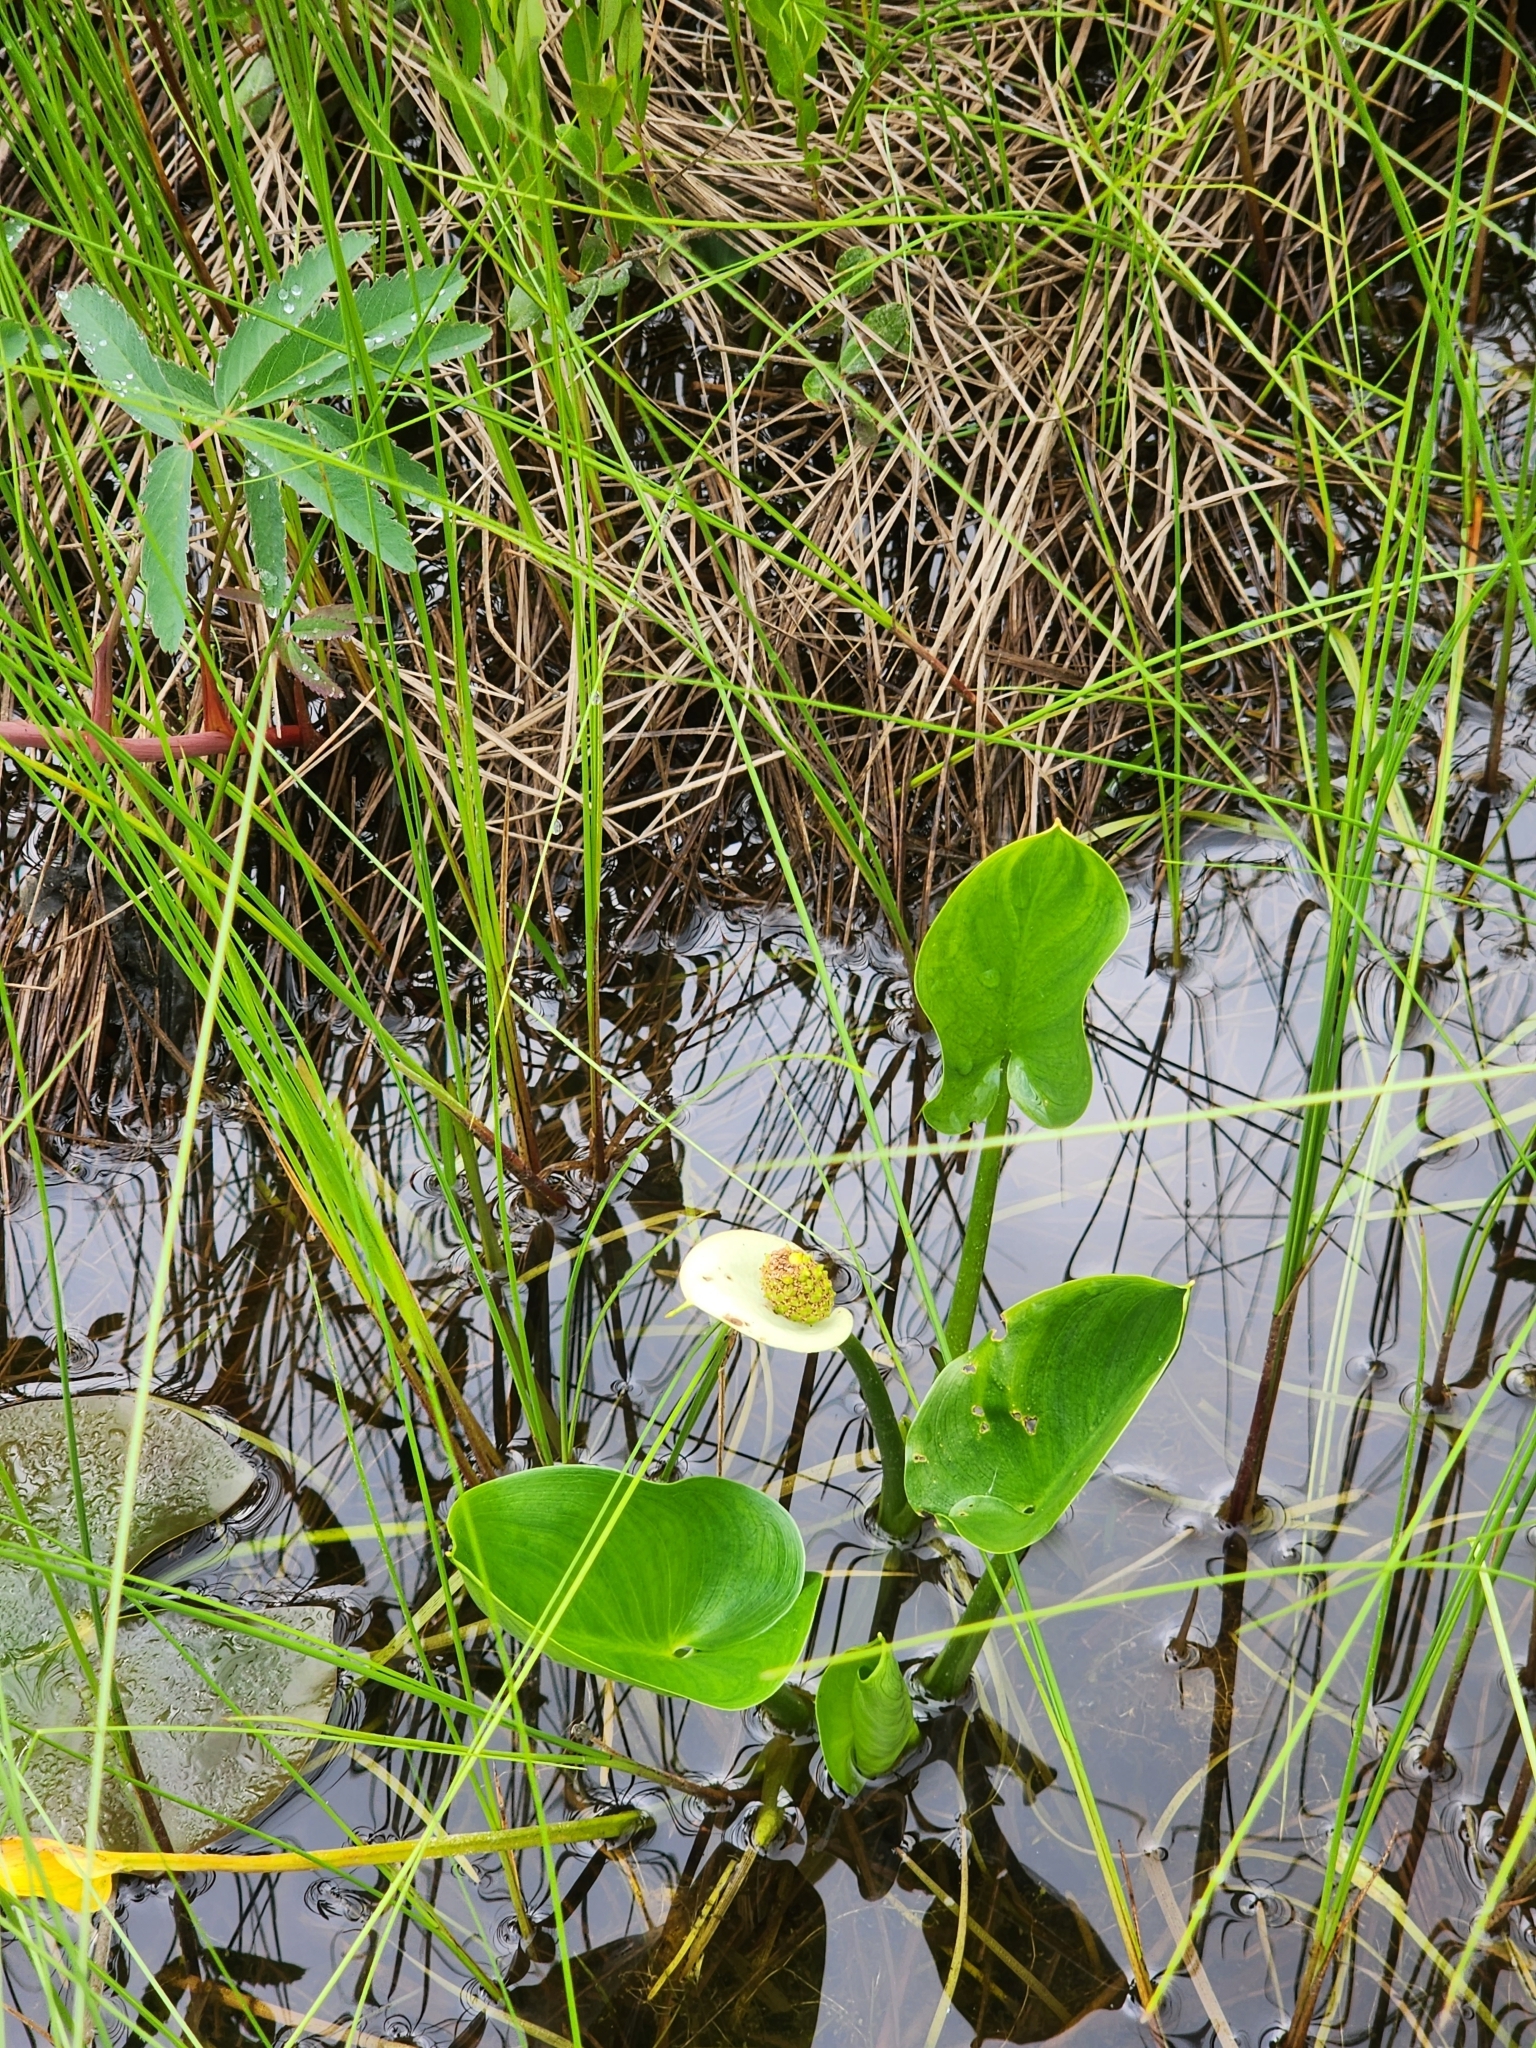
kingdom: Plantae
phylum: Tracheophyta
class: Liliopsida
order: Alismatales
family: Araceae
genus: Calla
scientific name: Calla palustris
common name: Bog arum
